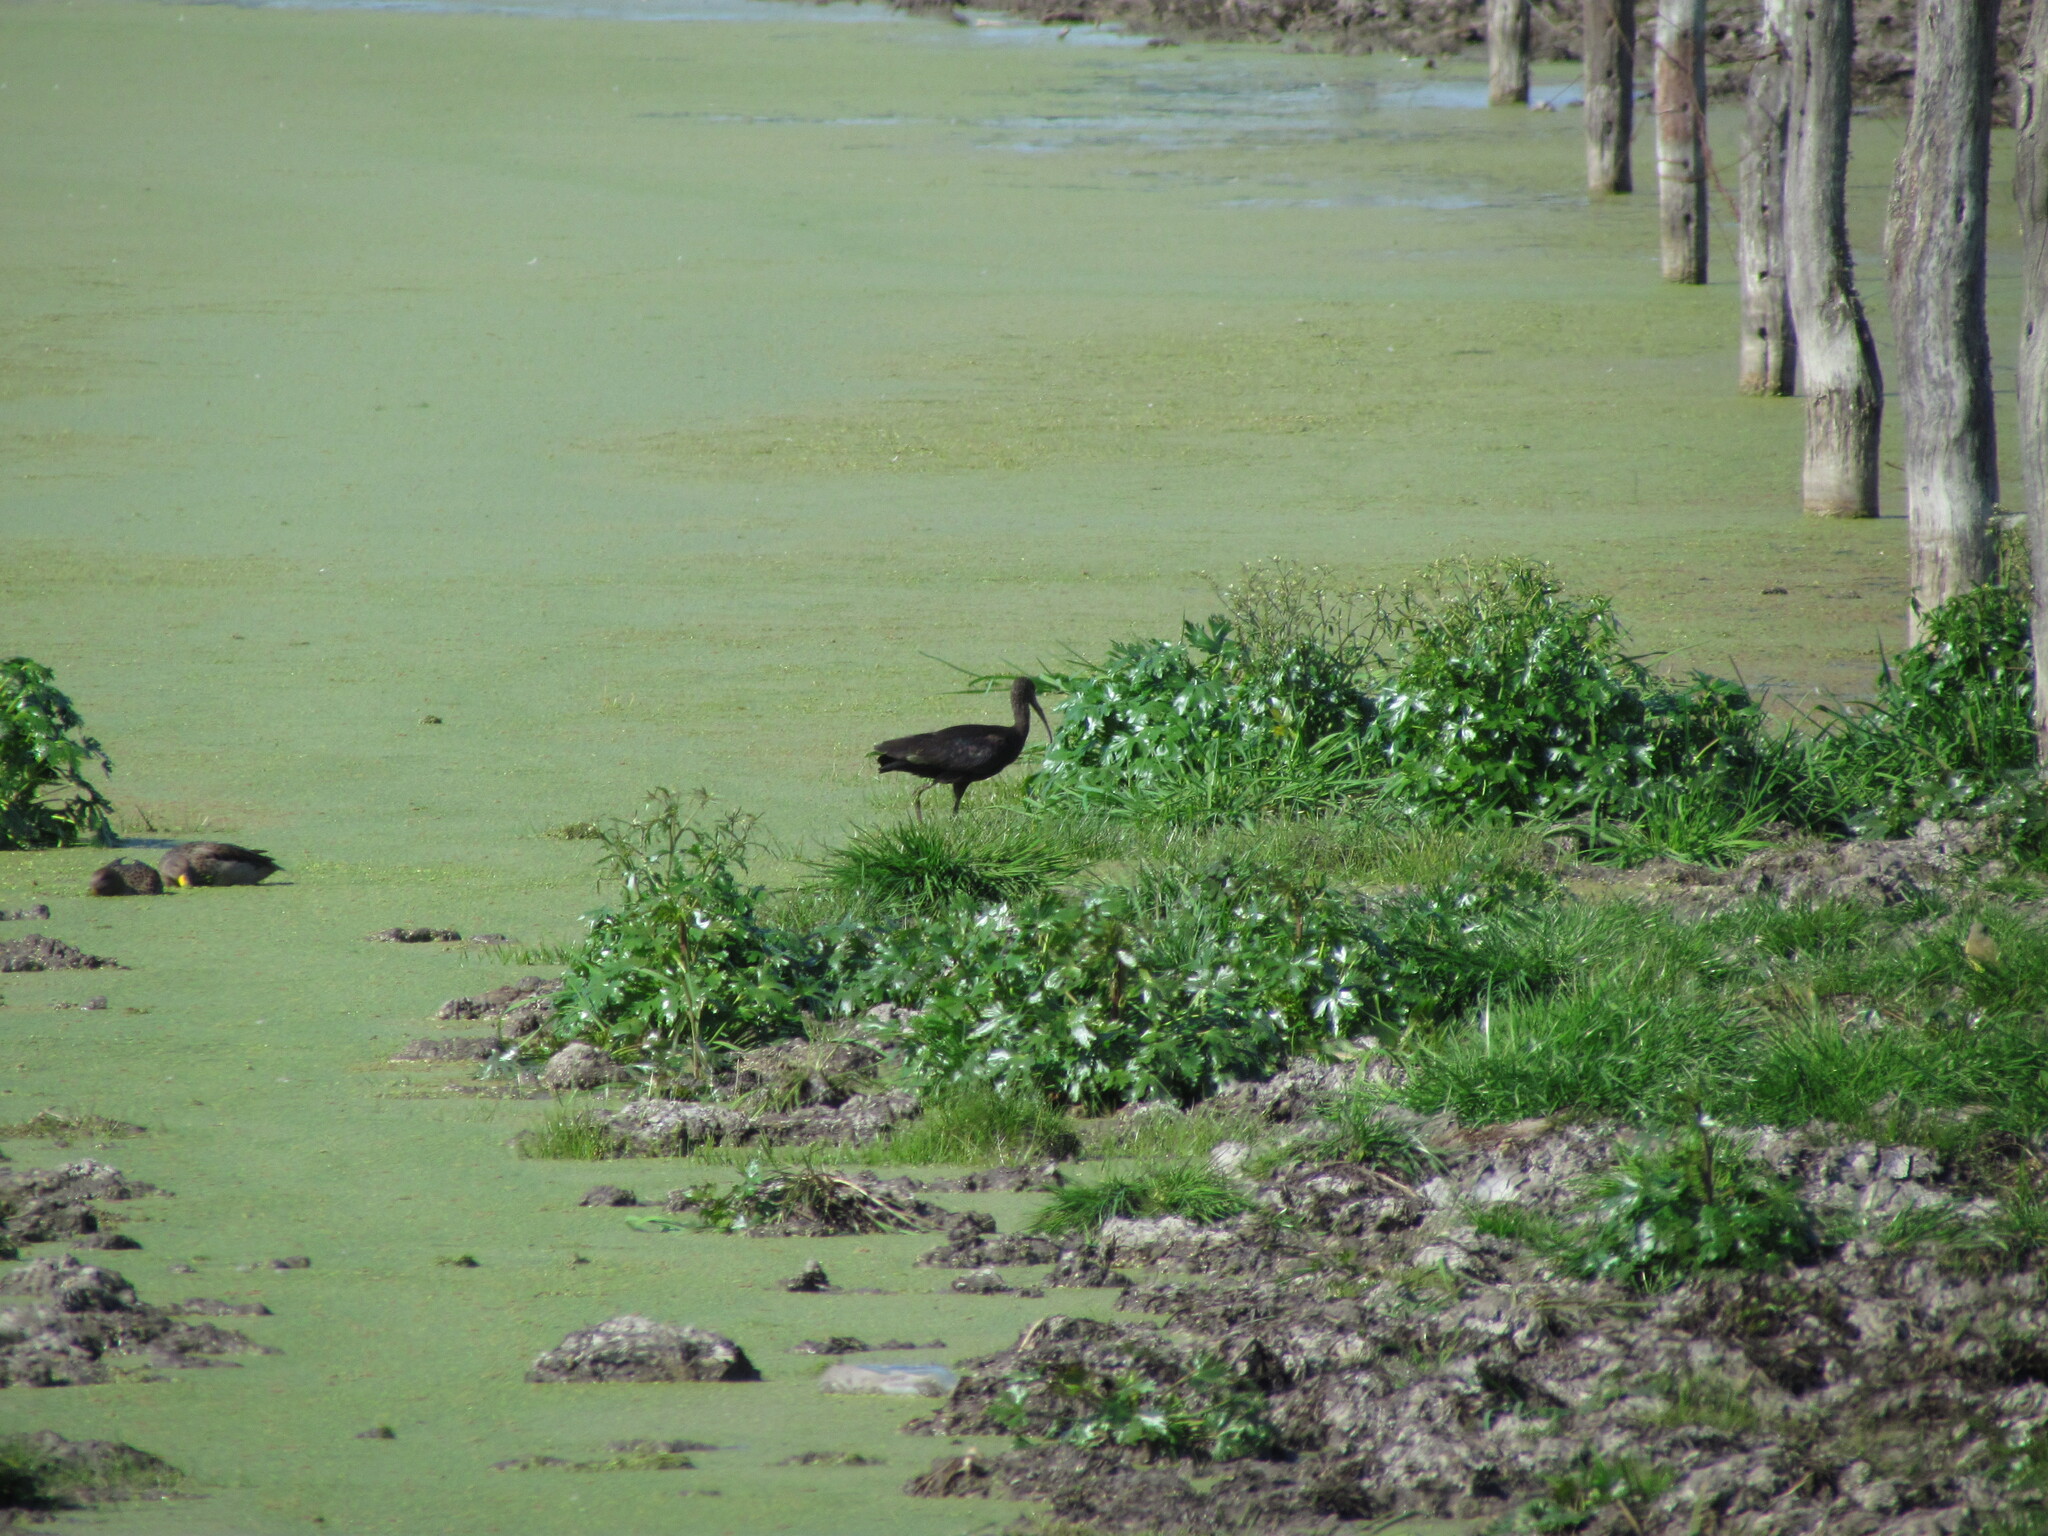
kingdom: Animalia
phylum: Chordata
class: Aves
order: Pelecaniformes
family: Threskiornithidae
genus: Plegadis
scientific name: Plegadis chihi
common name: White-faced ibis
